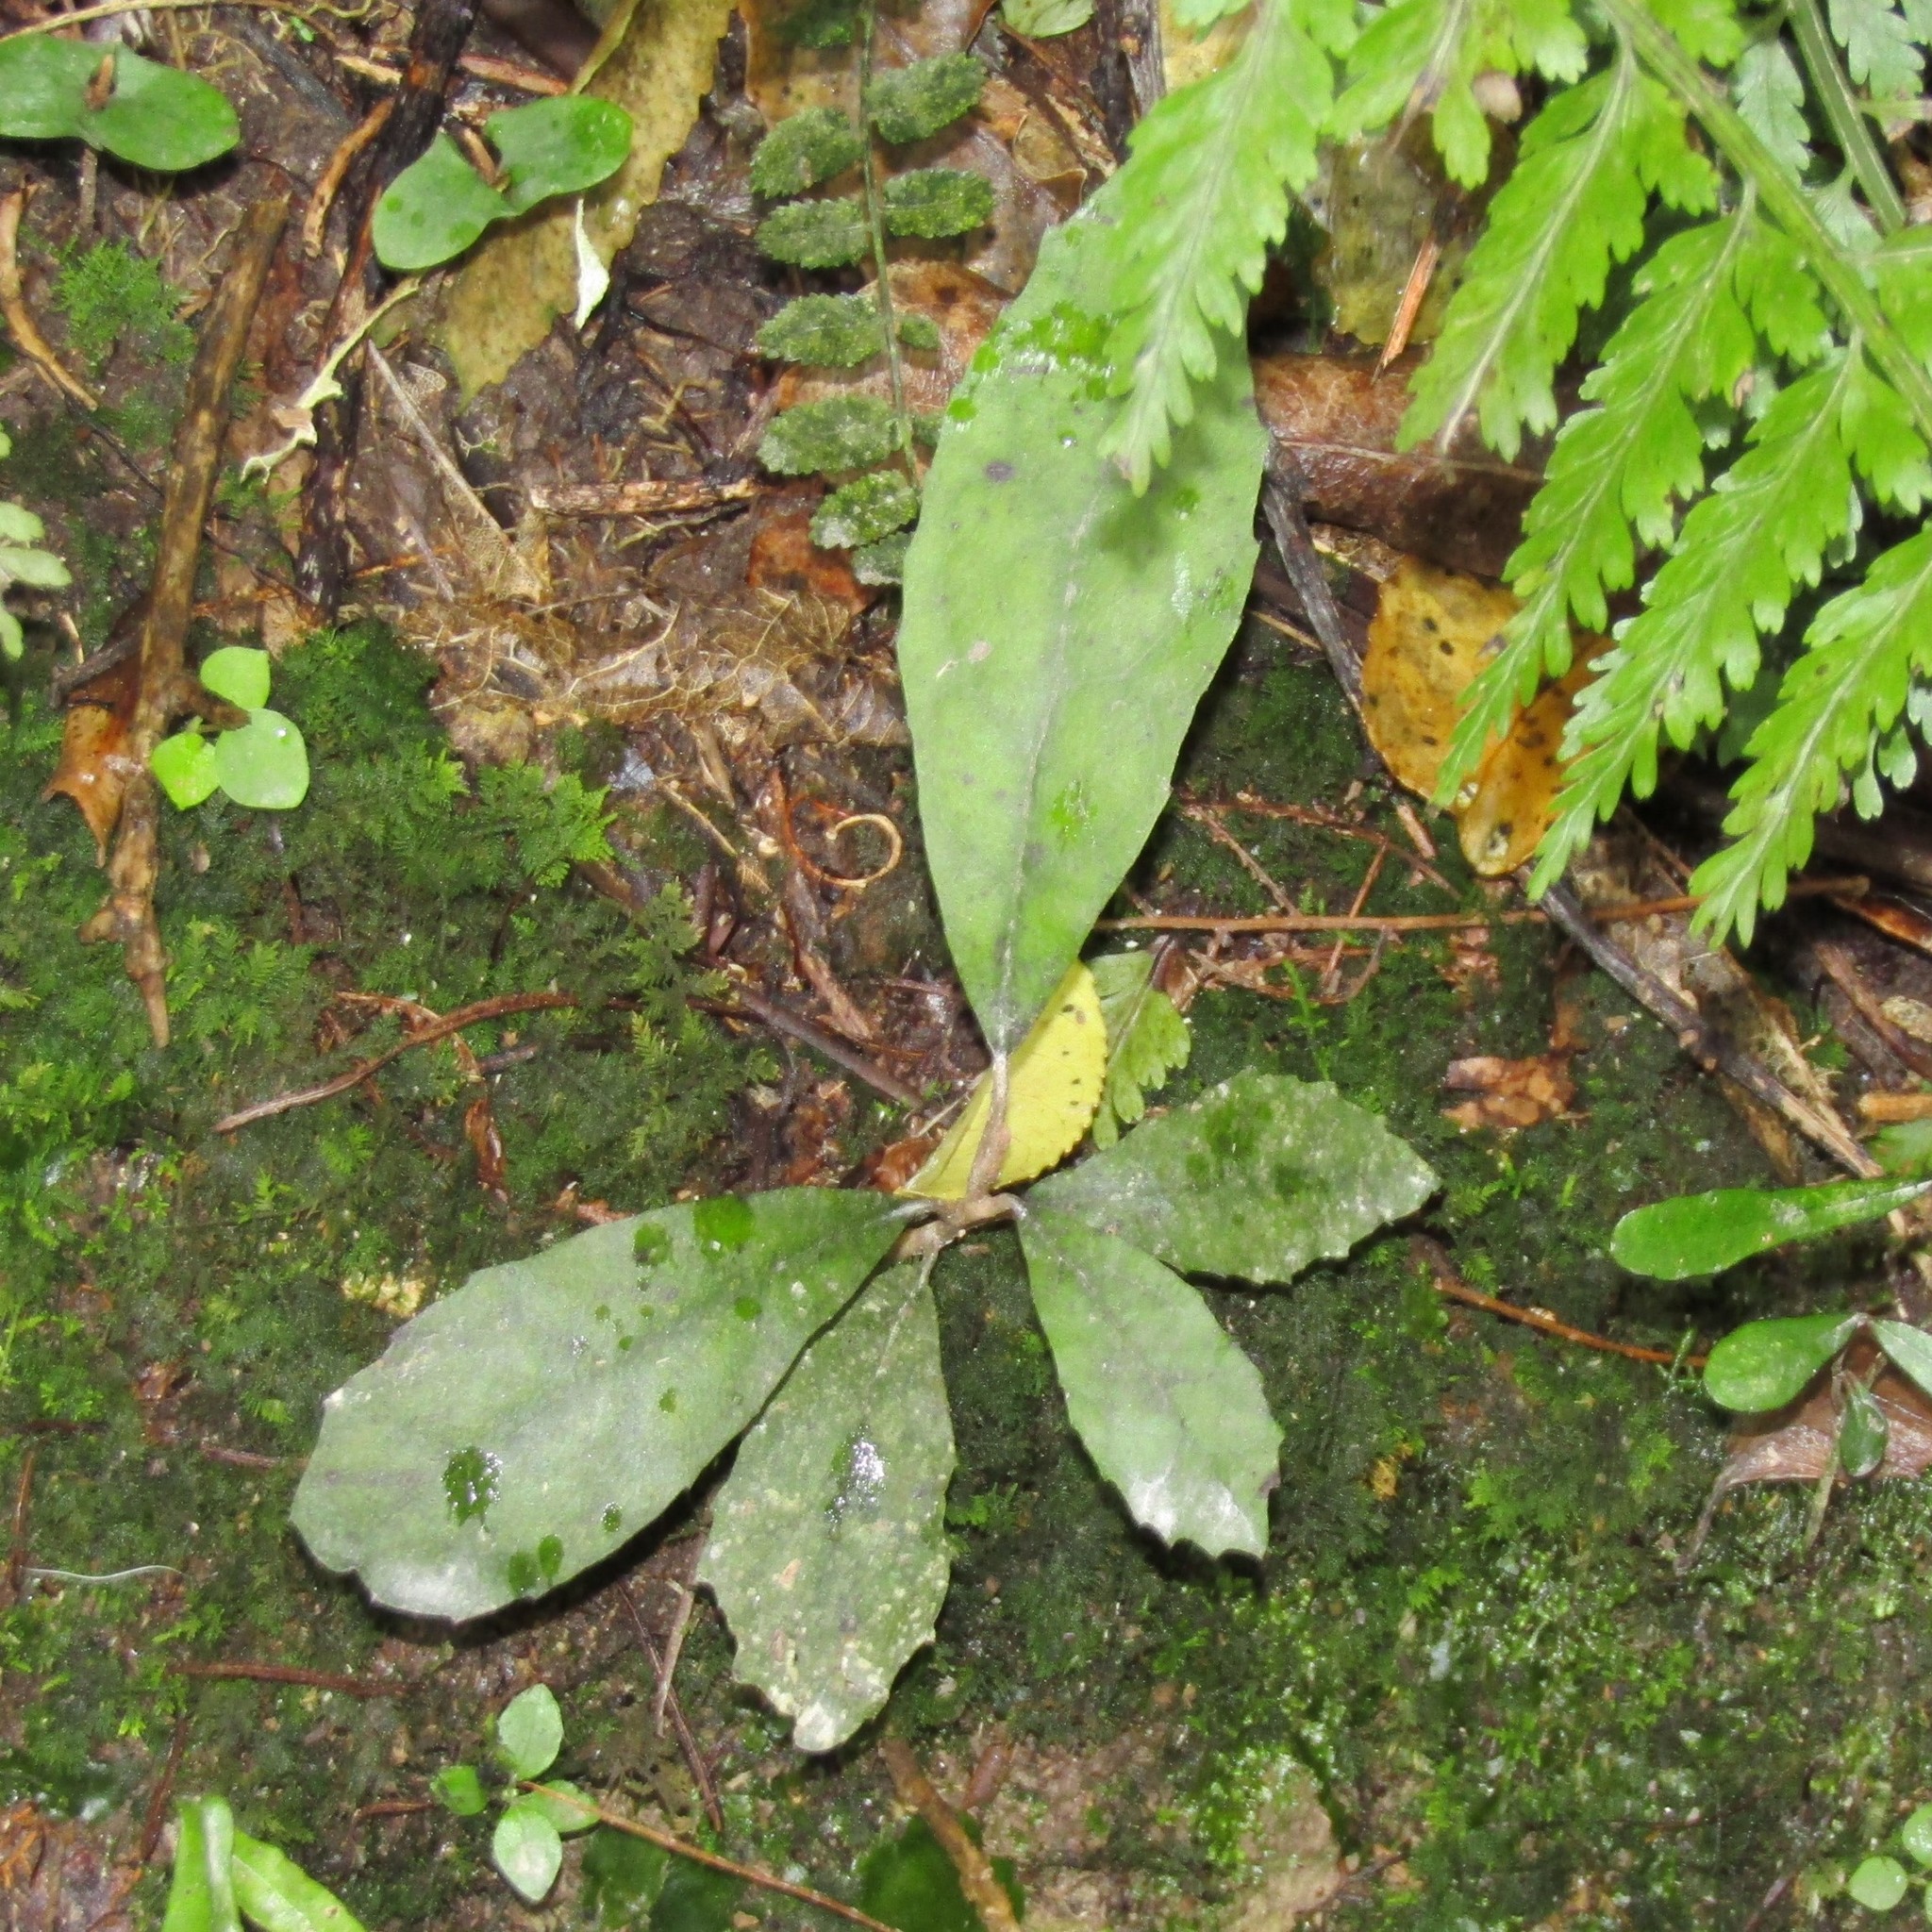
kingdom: Plantae
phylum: Tracheophyta
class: Magnoliopsida
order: Laurales
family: Monimiaceae
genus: Hedycarya
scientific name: Hedycarya arborea
